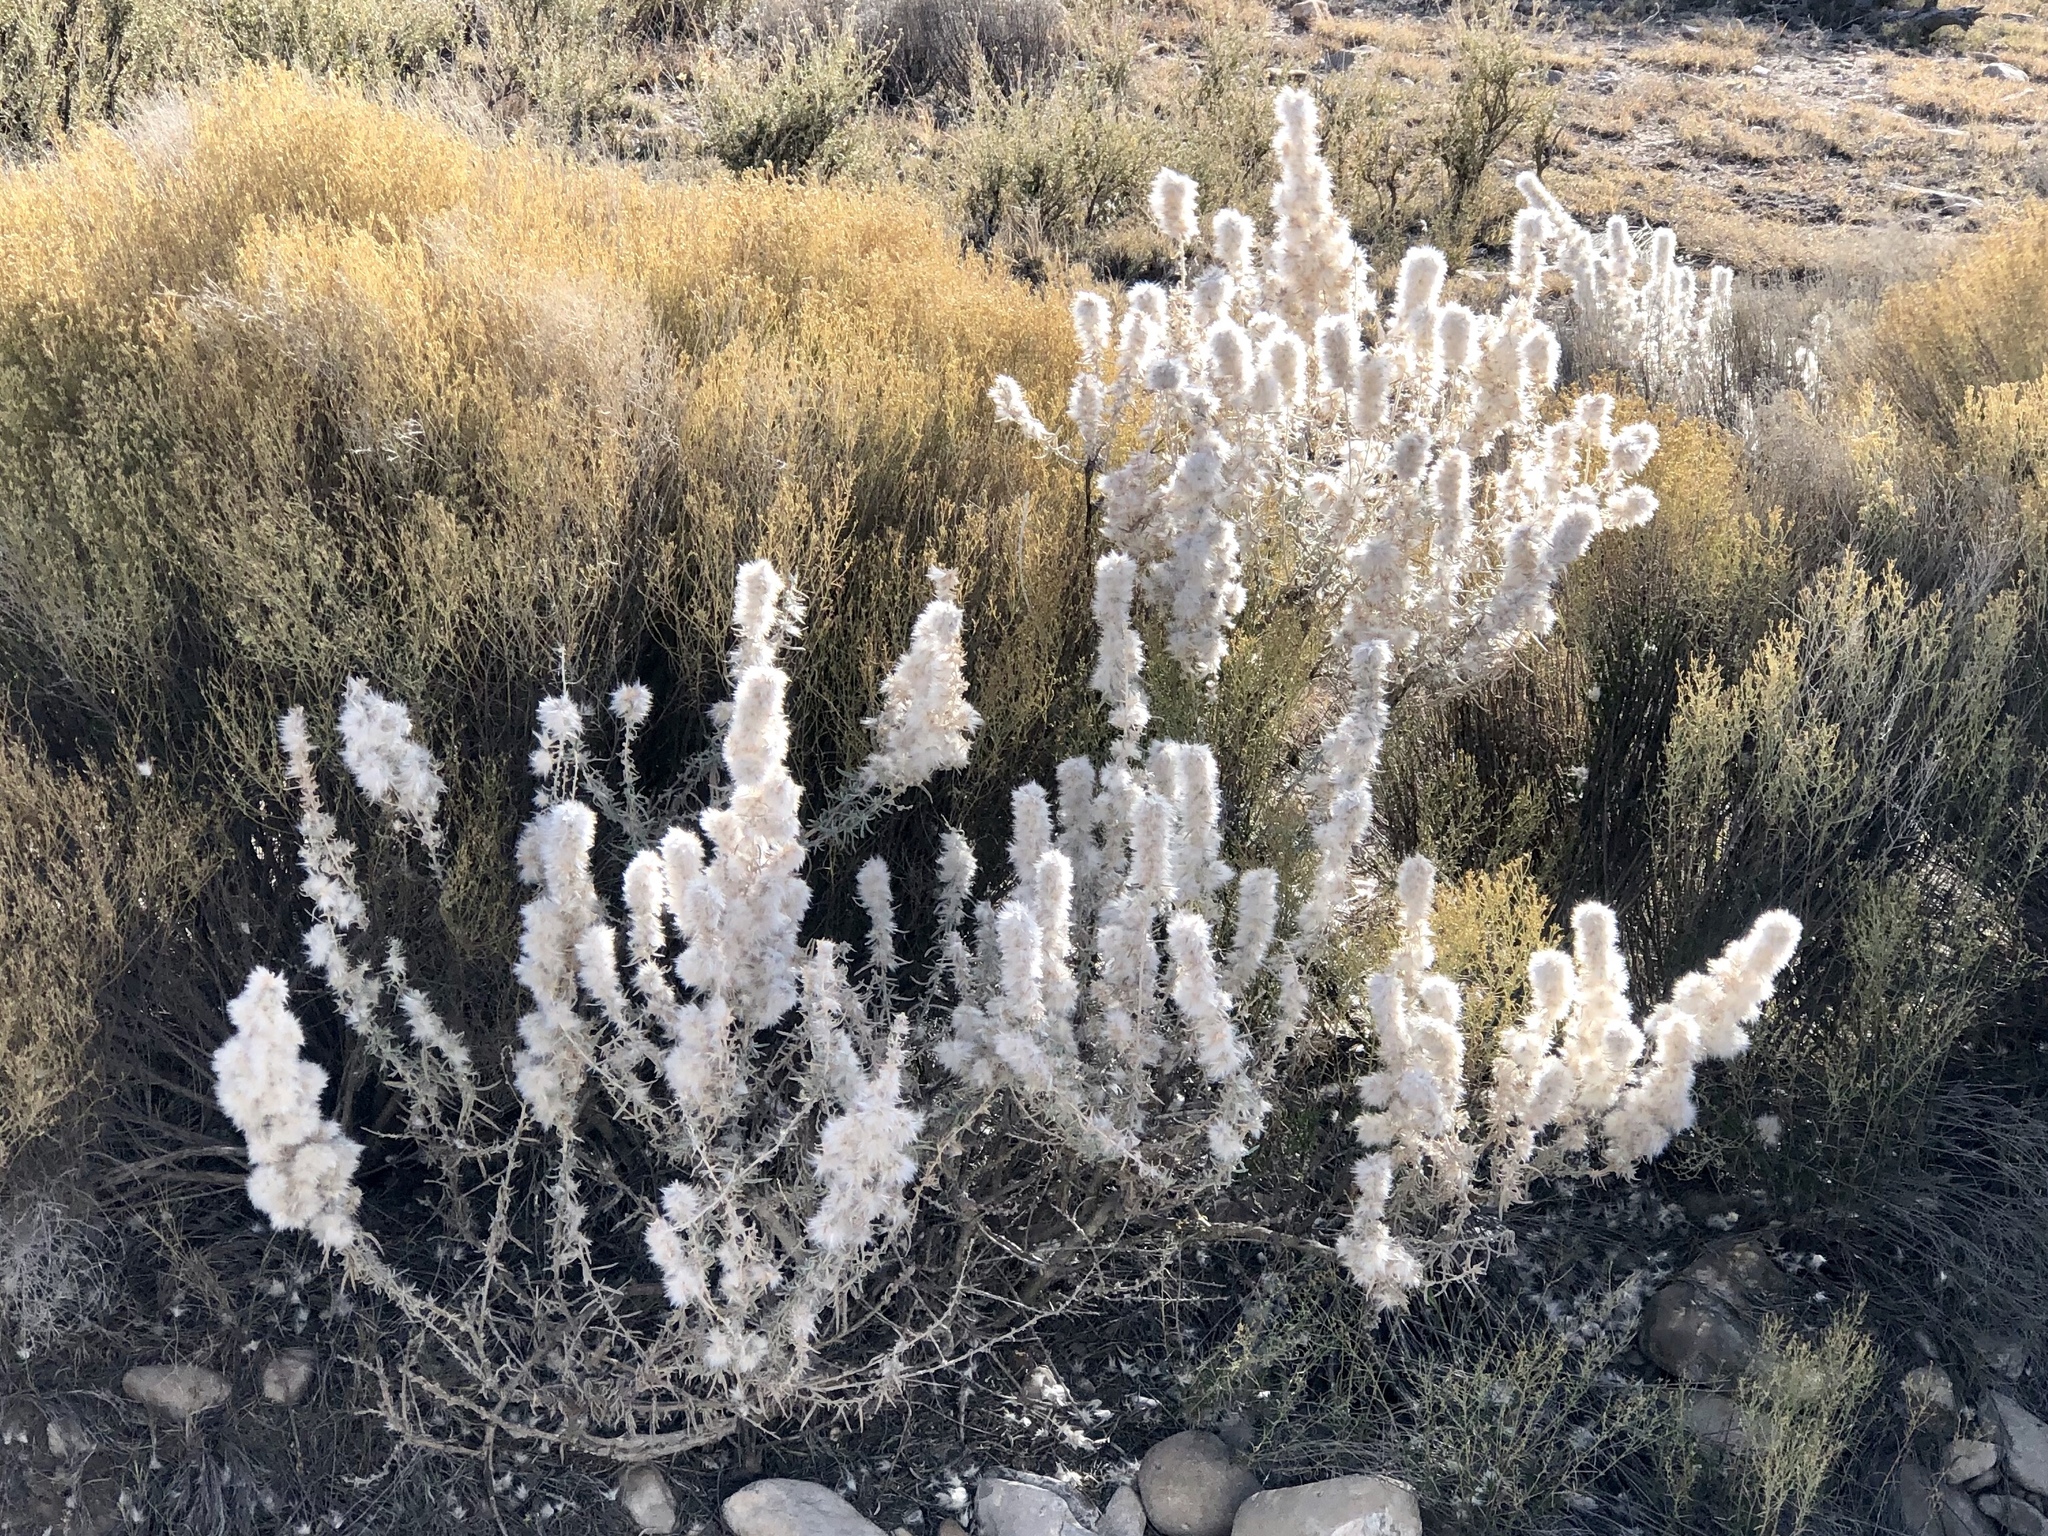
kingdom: Plantae
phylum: Tracheophyta
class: Magnoliopsida
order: Caryophyllales
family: Amaranthaceae
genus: Krascheninnikovia
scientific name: Krascheninnikovia lanata
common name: Winterfat
